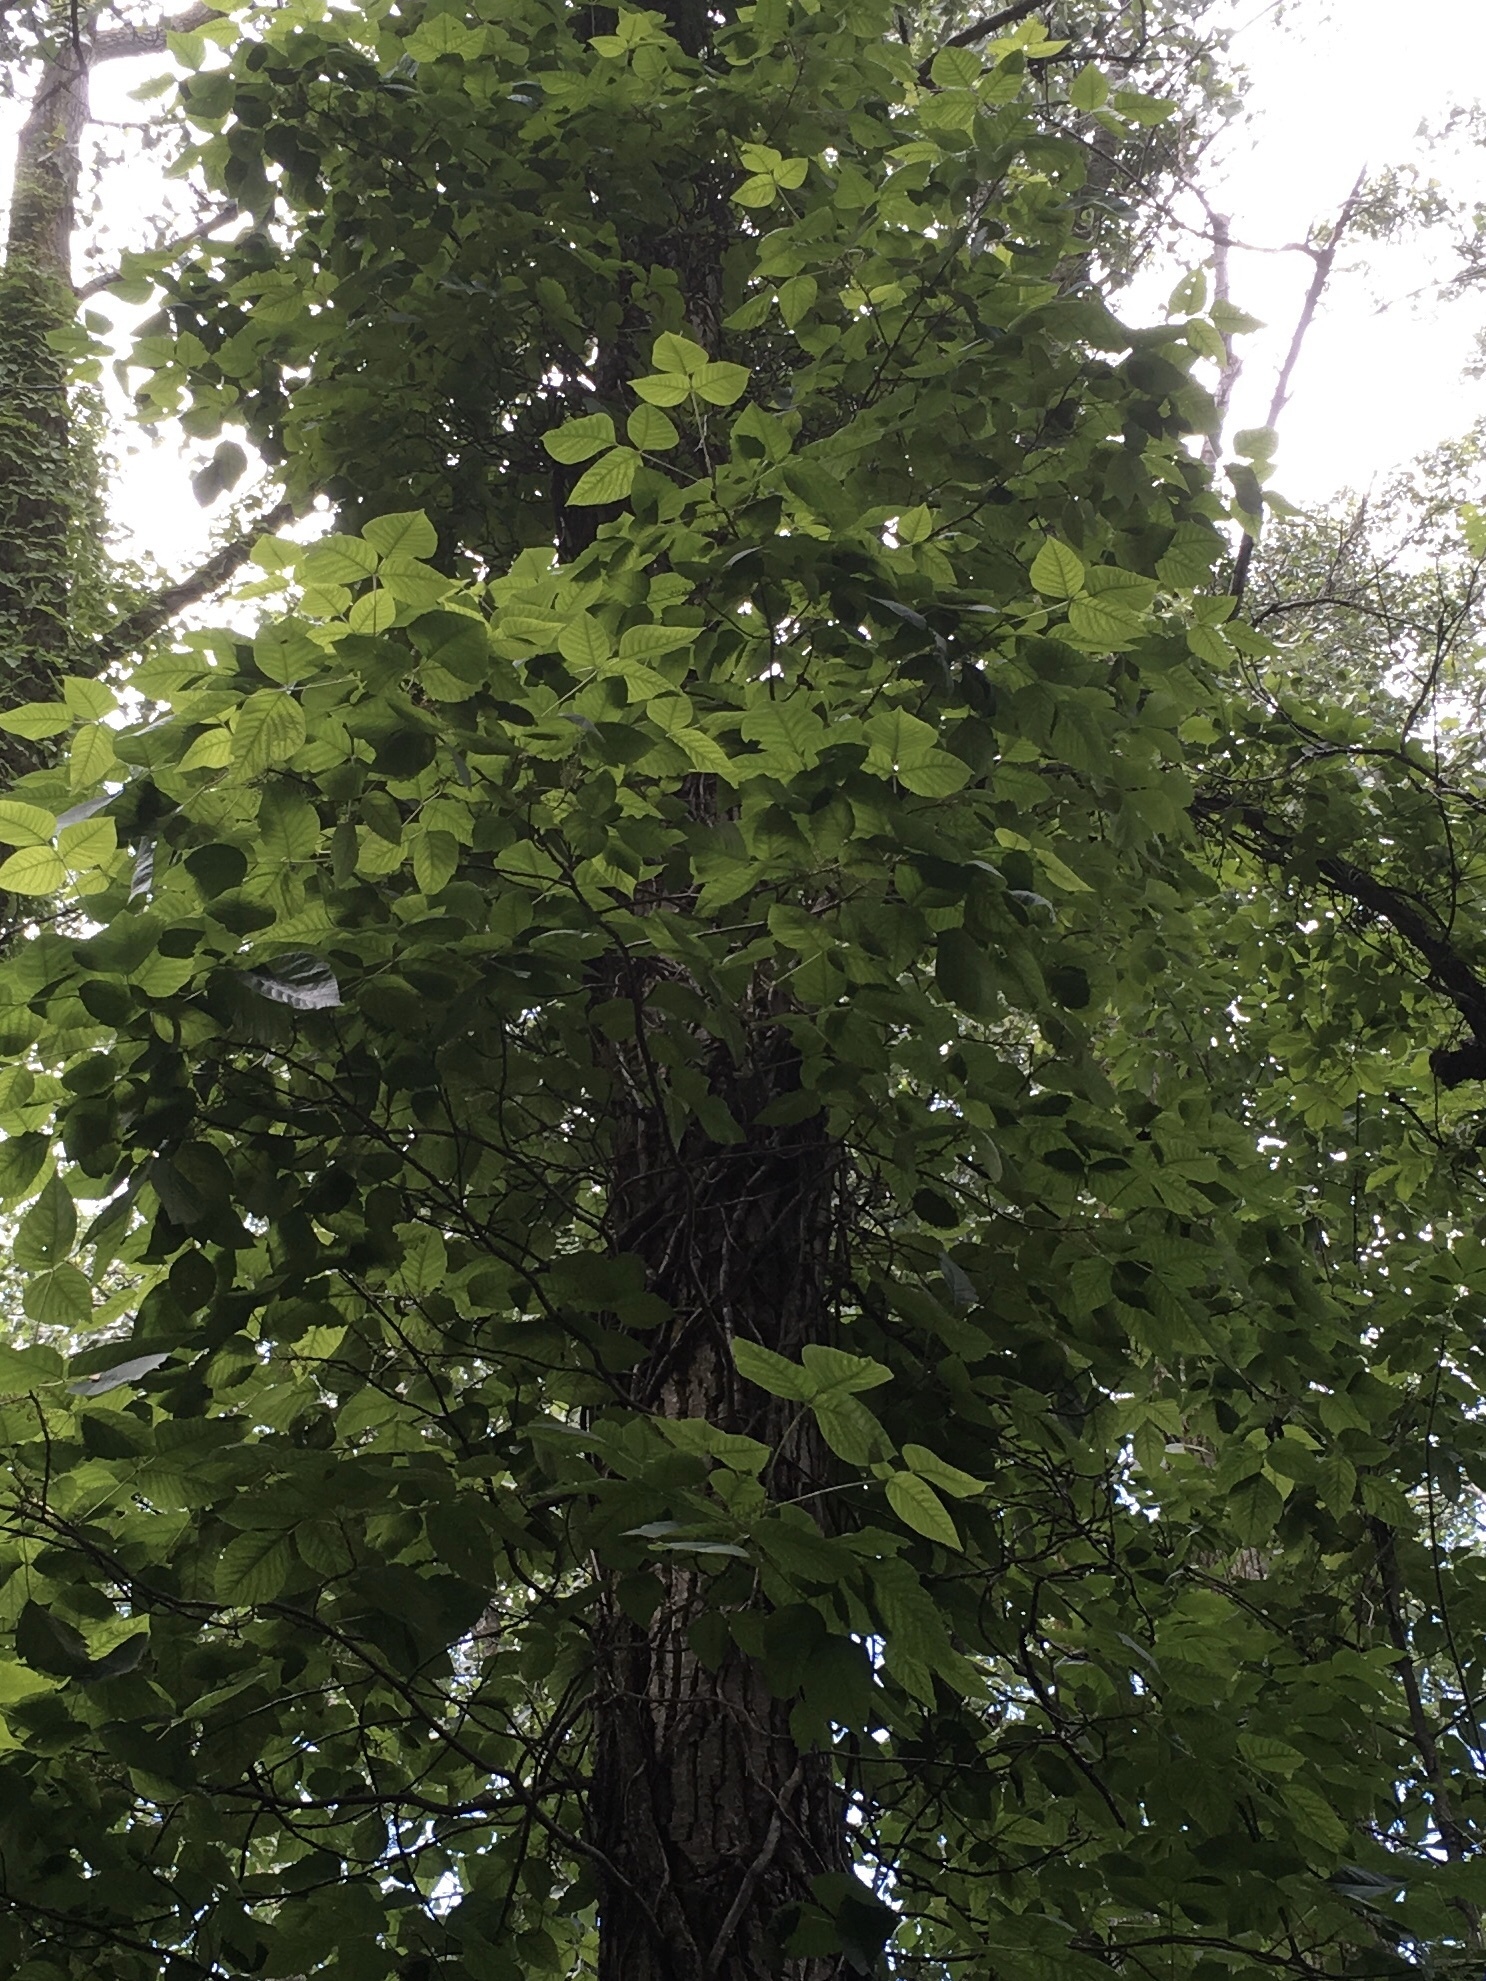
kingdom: Plantae
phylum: Tracheophyta
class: Magnoliopsida
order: Sapindales
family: Anacardiaceae
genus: Toxicodendron
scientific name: Toxicodendron radicans
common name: Poison ivy
